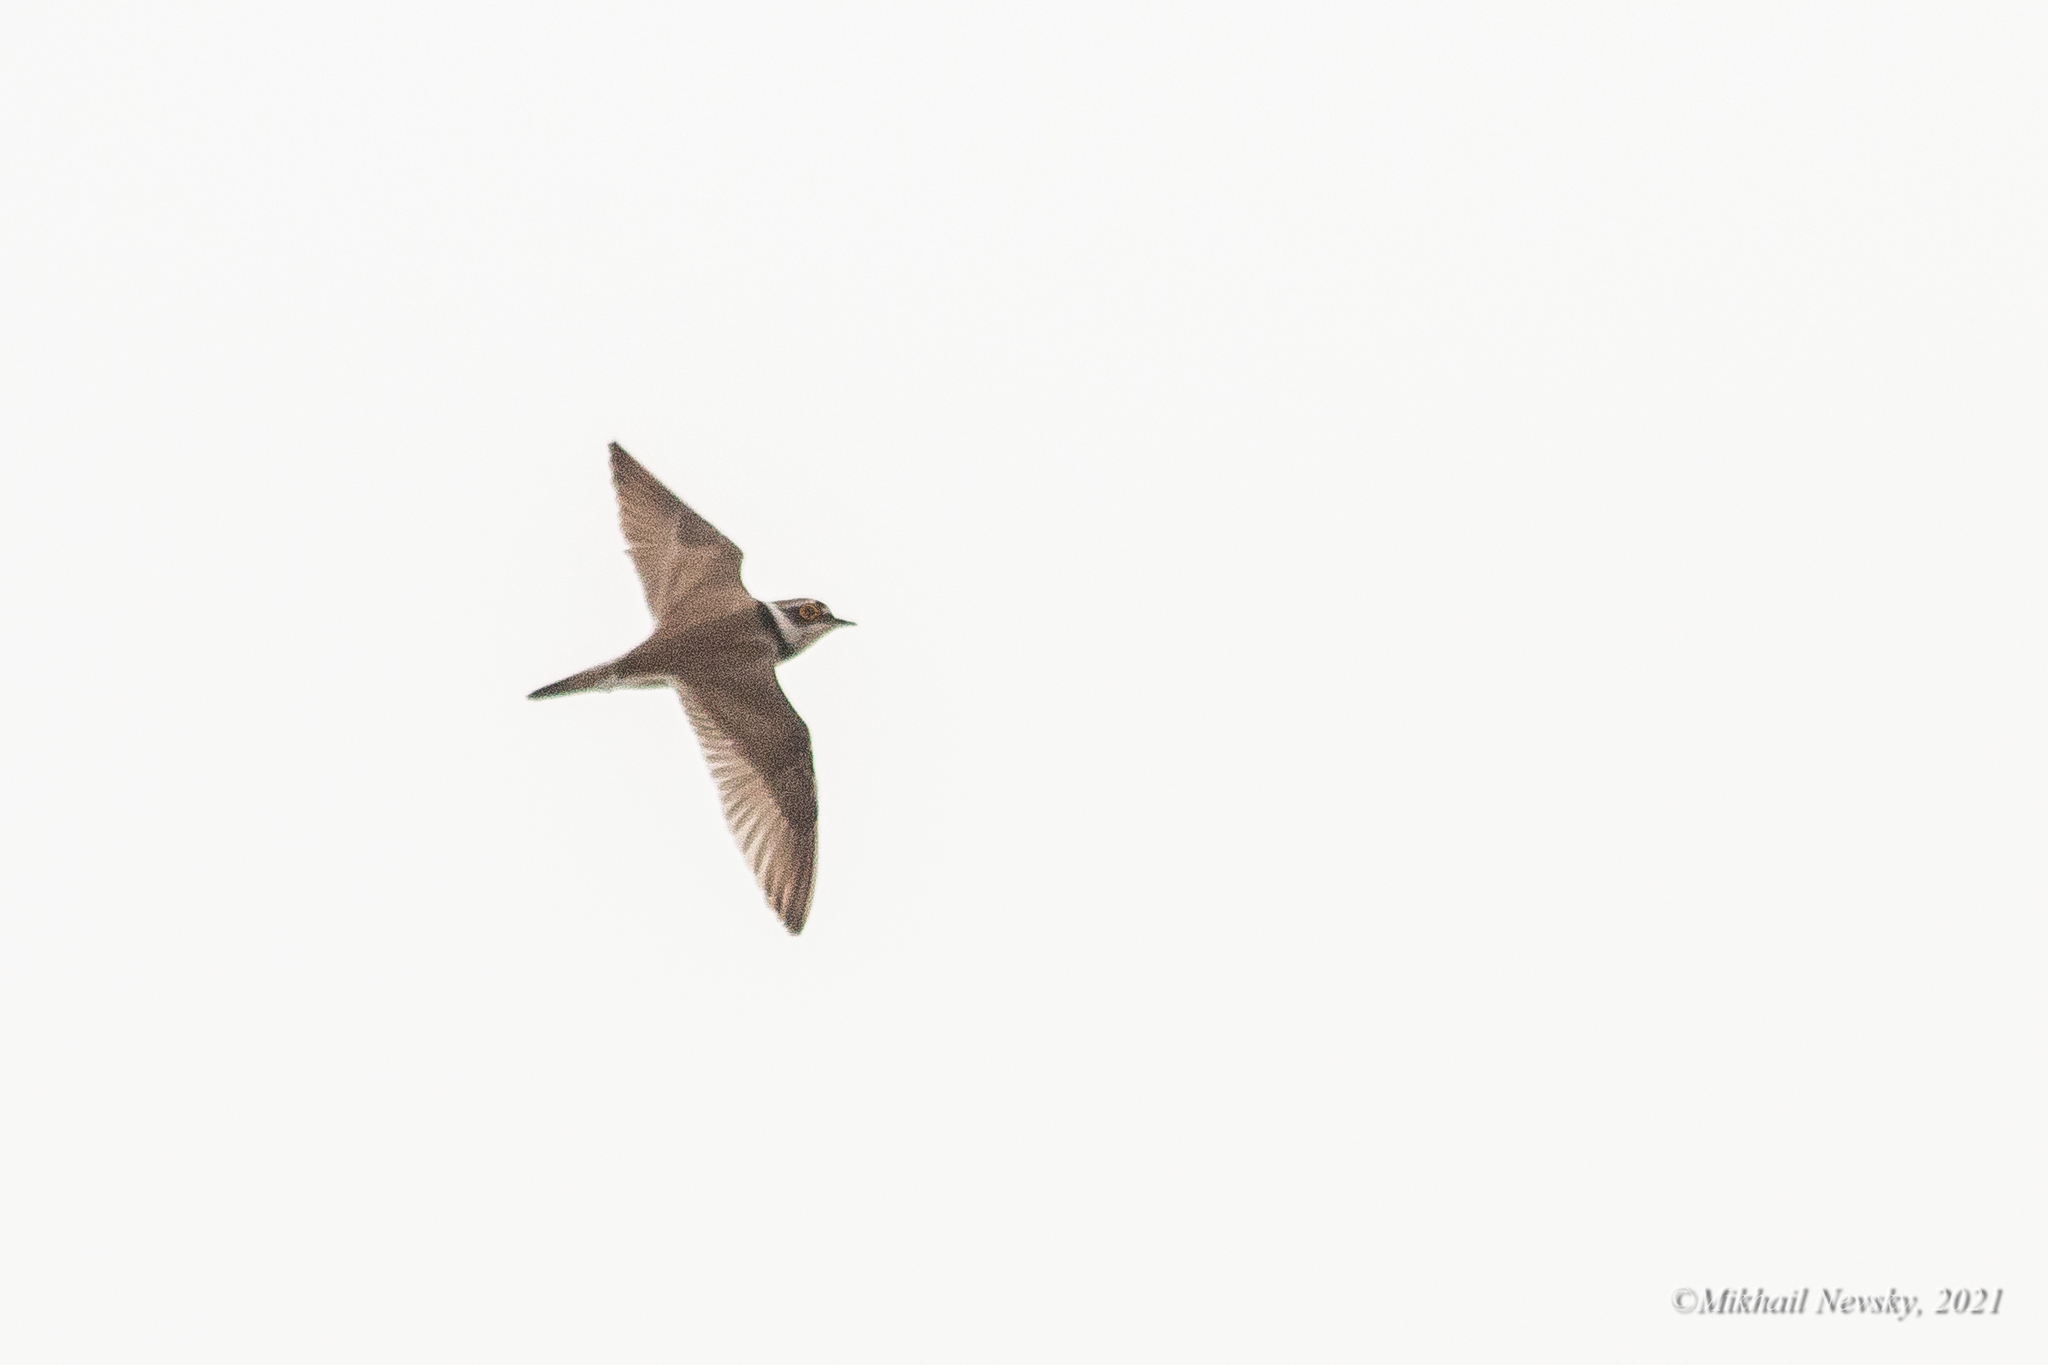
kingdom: Animalia
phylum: Chordata
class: Aves
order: Charadriiformes
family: Charadriidae
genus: Charadrius
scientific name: Charadrius dubius
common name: Little ringed plover
